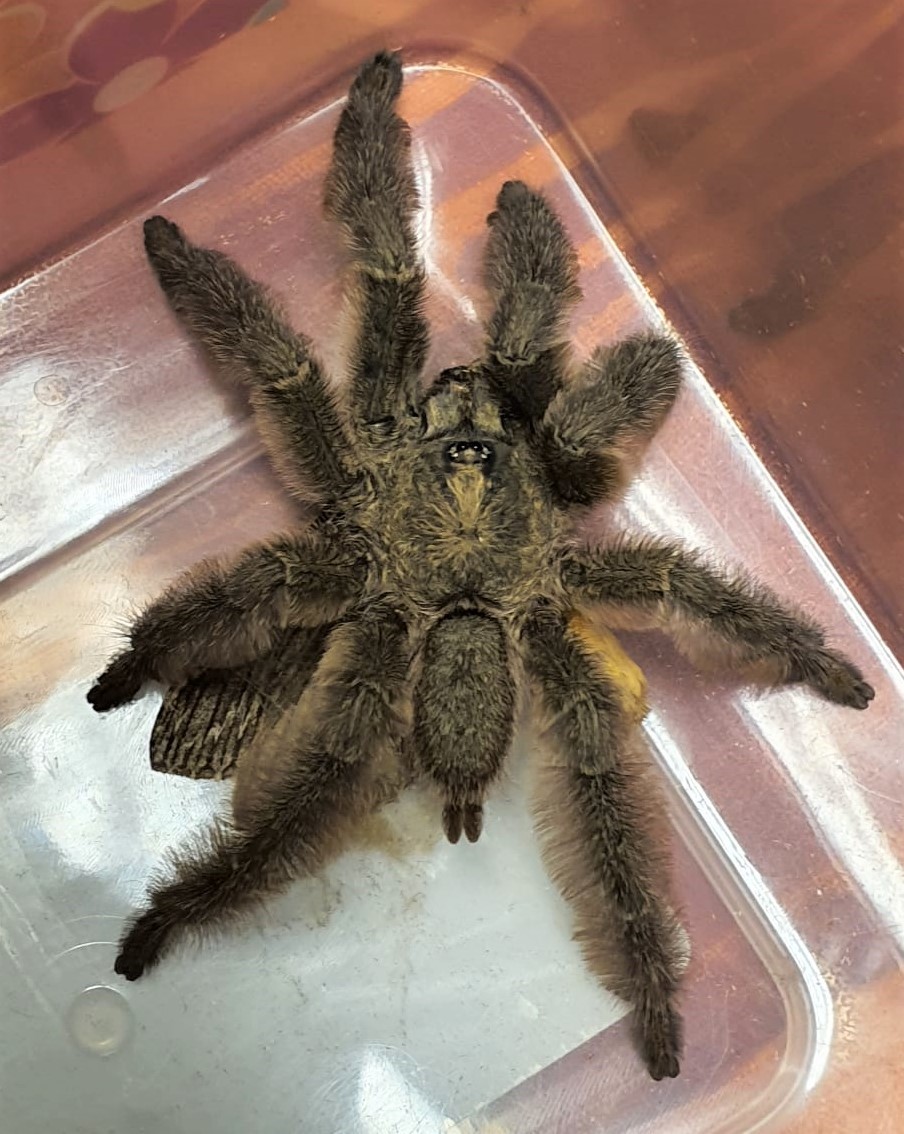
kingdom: Animalia
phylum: Arthropoda
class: Arachnida
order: Araneae
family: Theraphosidae
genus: Tapinauchenius
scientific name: Tapinauchenius plumipes
